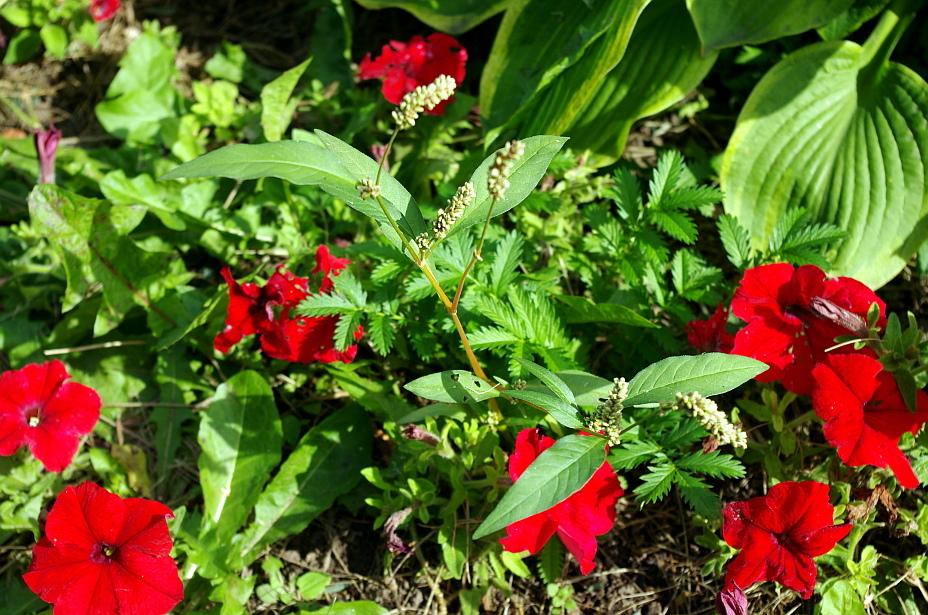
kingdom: Plantae
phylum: Tracheophyta
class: Magnoliopsida
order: Caryophyllales
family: Polygonaceae
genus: Persicaria
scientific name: Persicaria lapathifolia
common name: Curlytop knotweed
